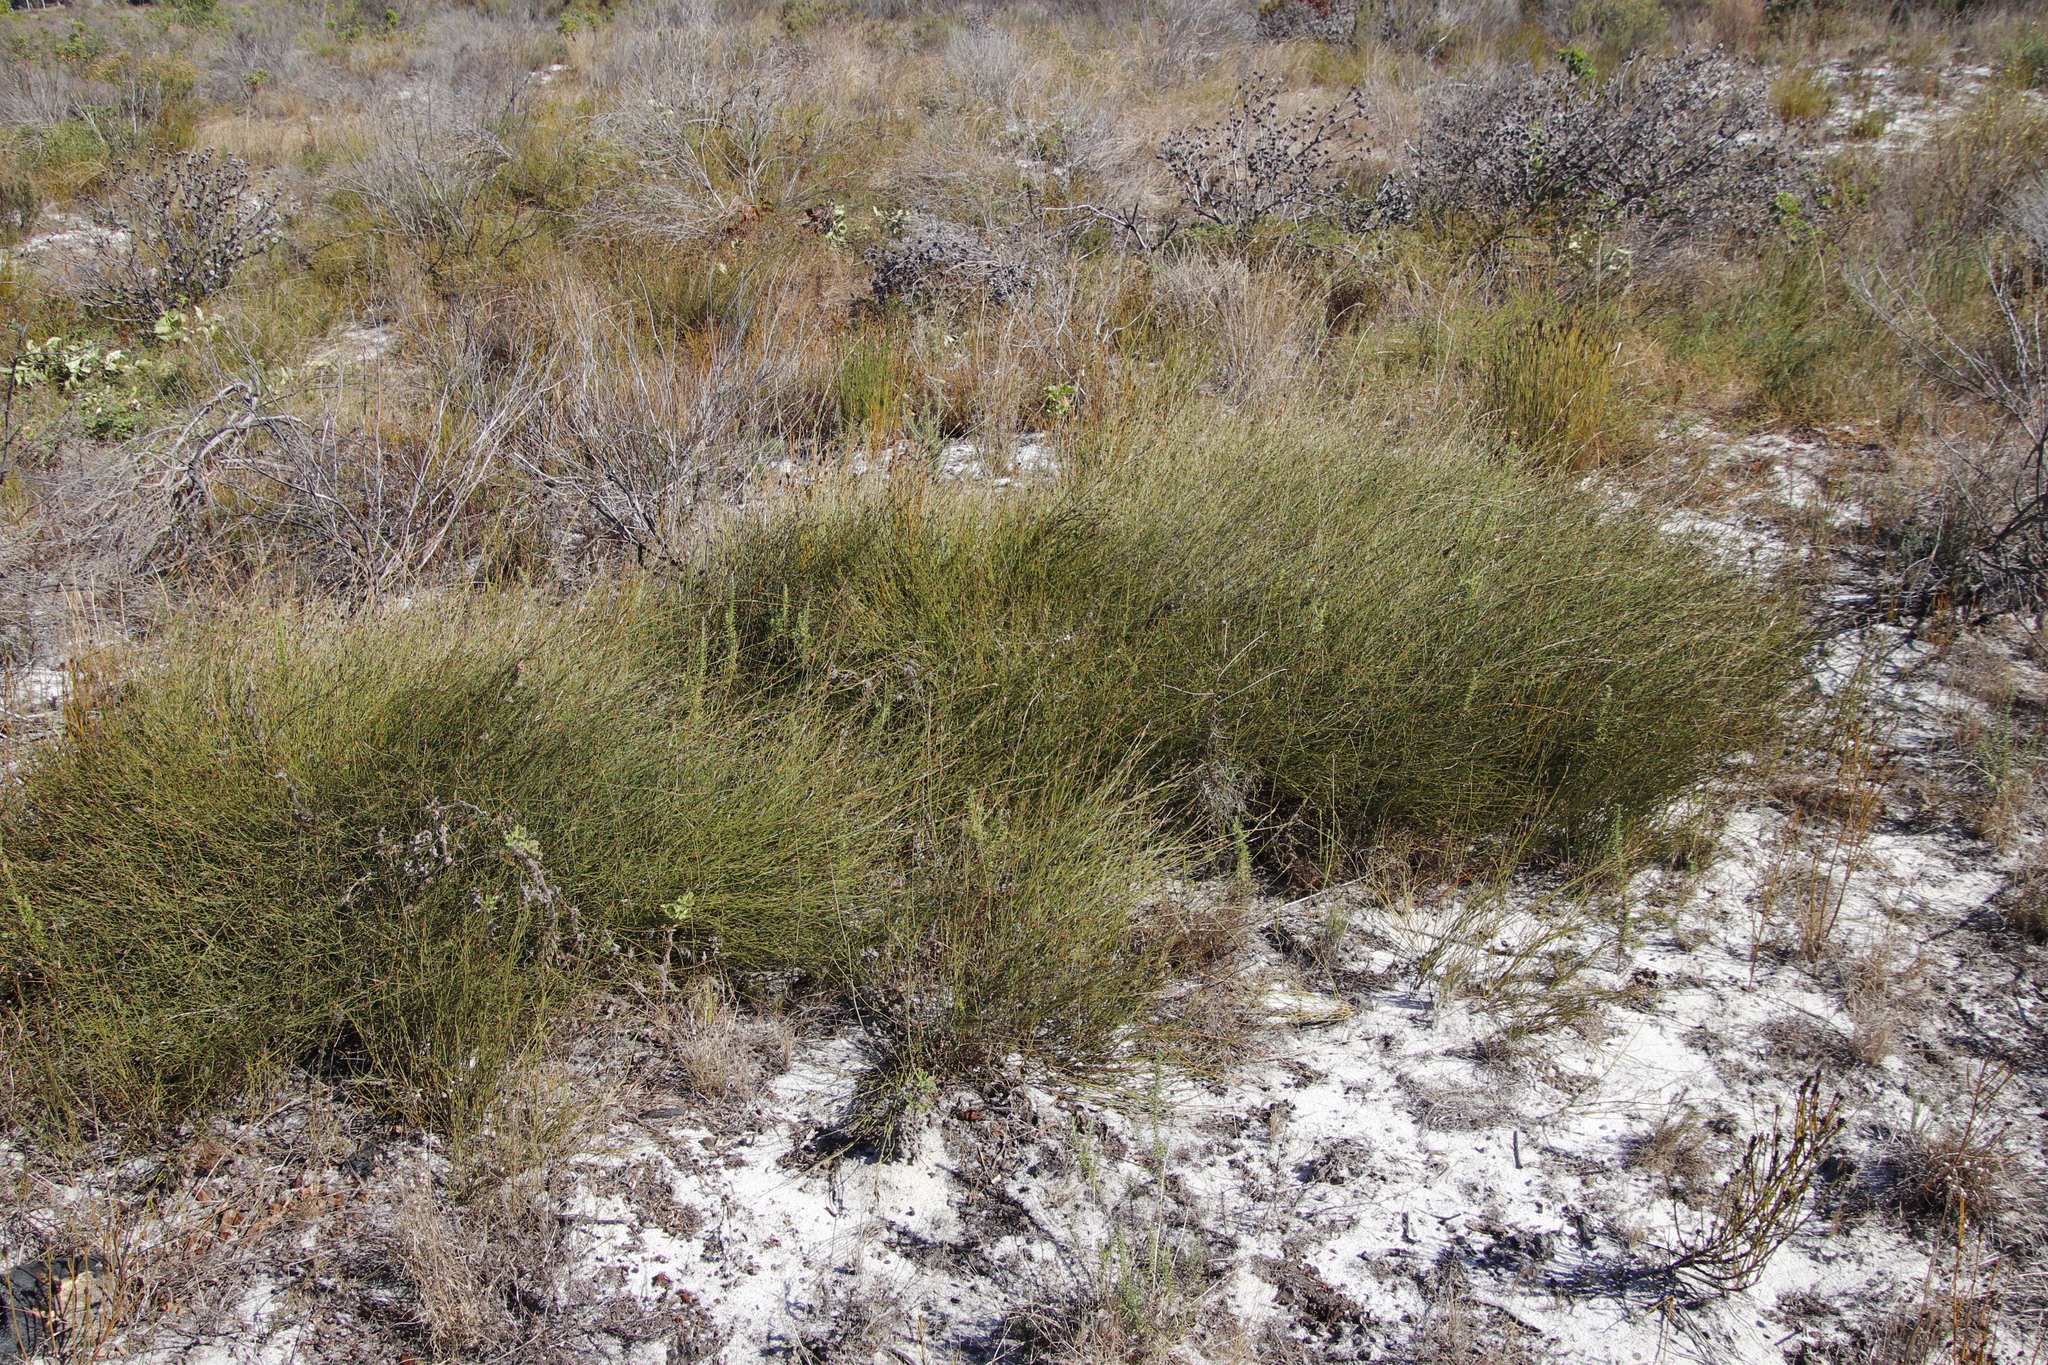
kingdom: Plantae
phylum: Tracheophyta
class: Liliopsida
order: Poales
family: Restionaceae
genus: Willdenowia
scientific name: Willdenowia sulcata
